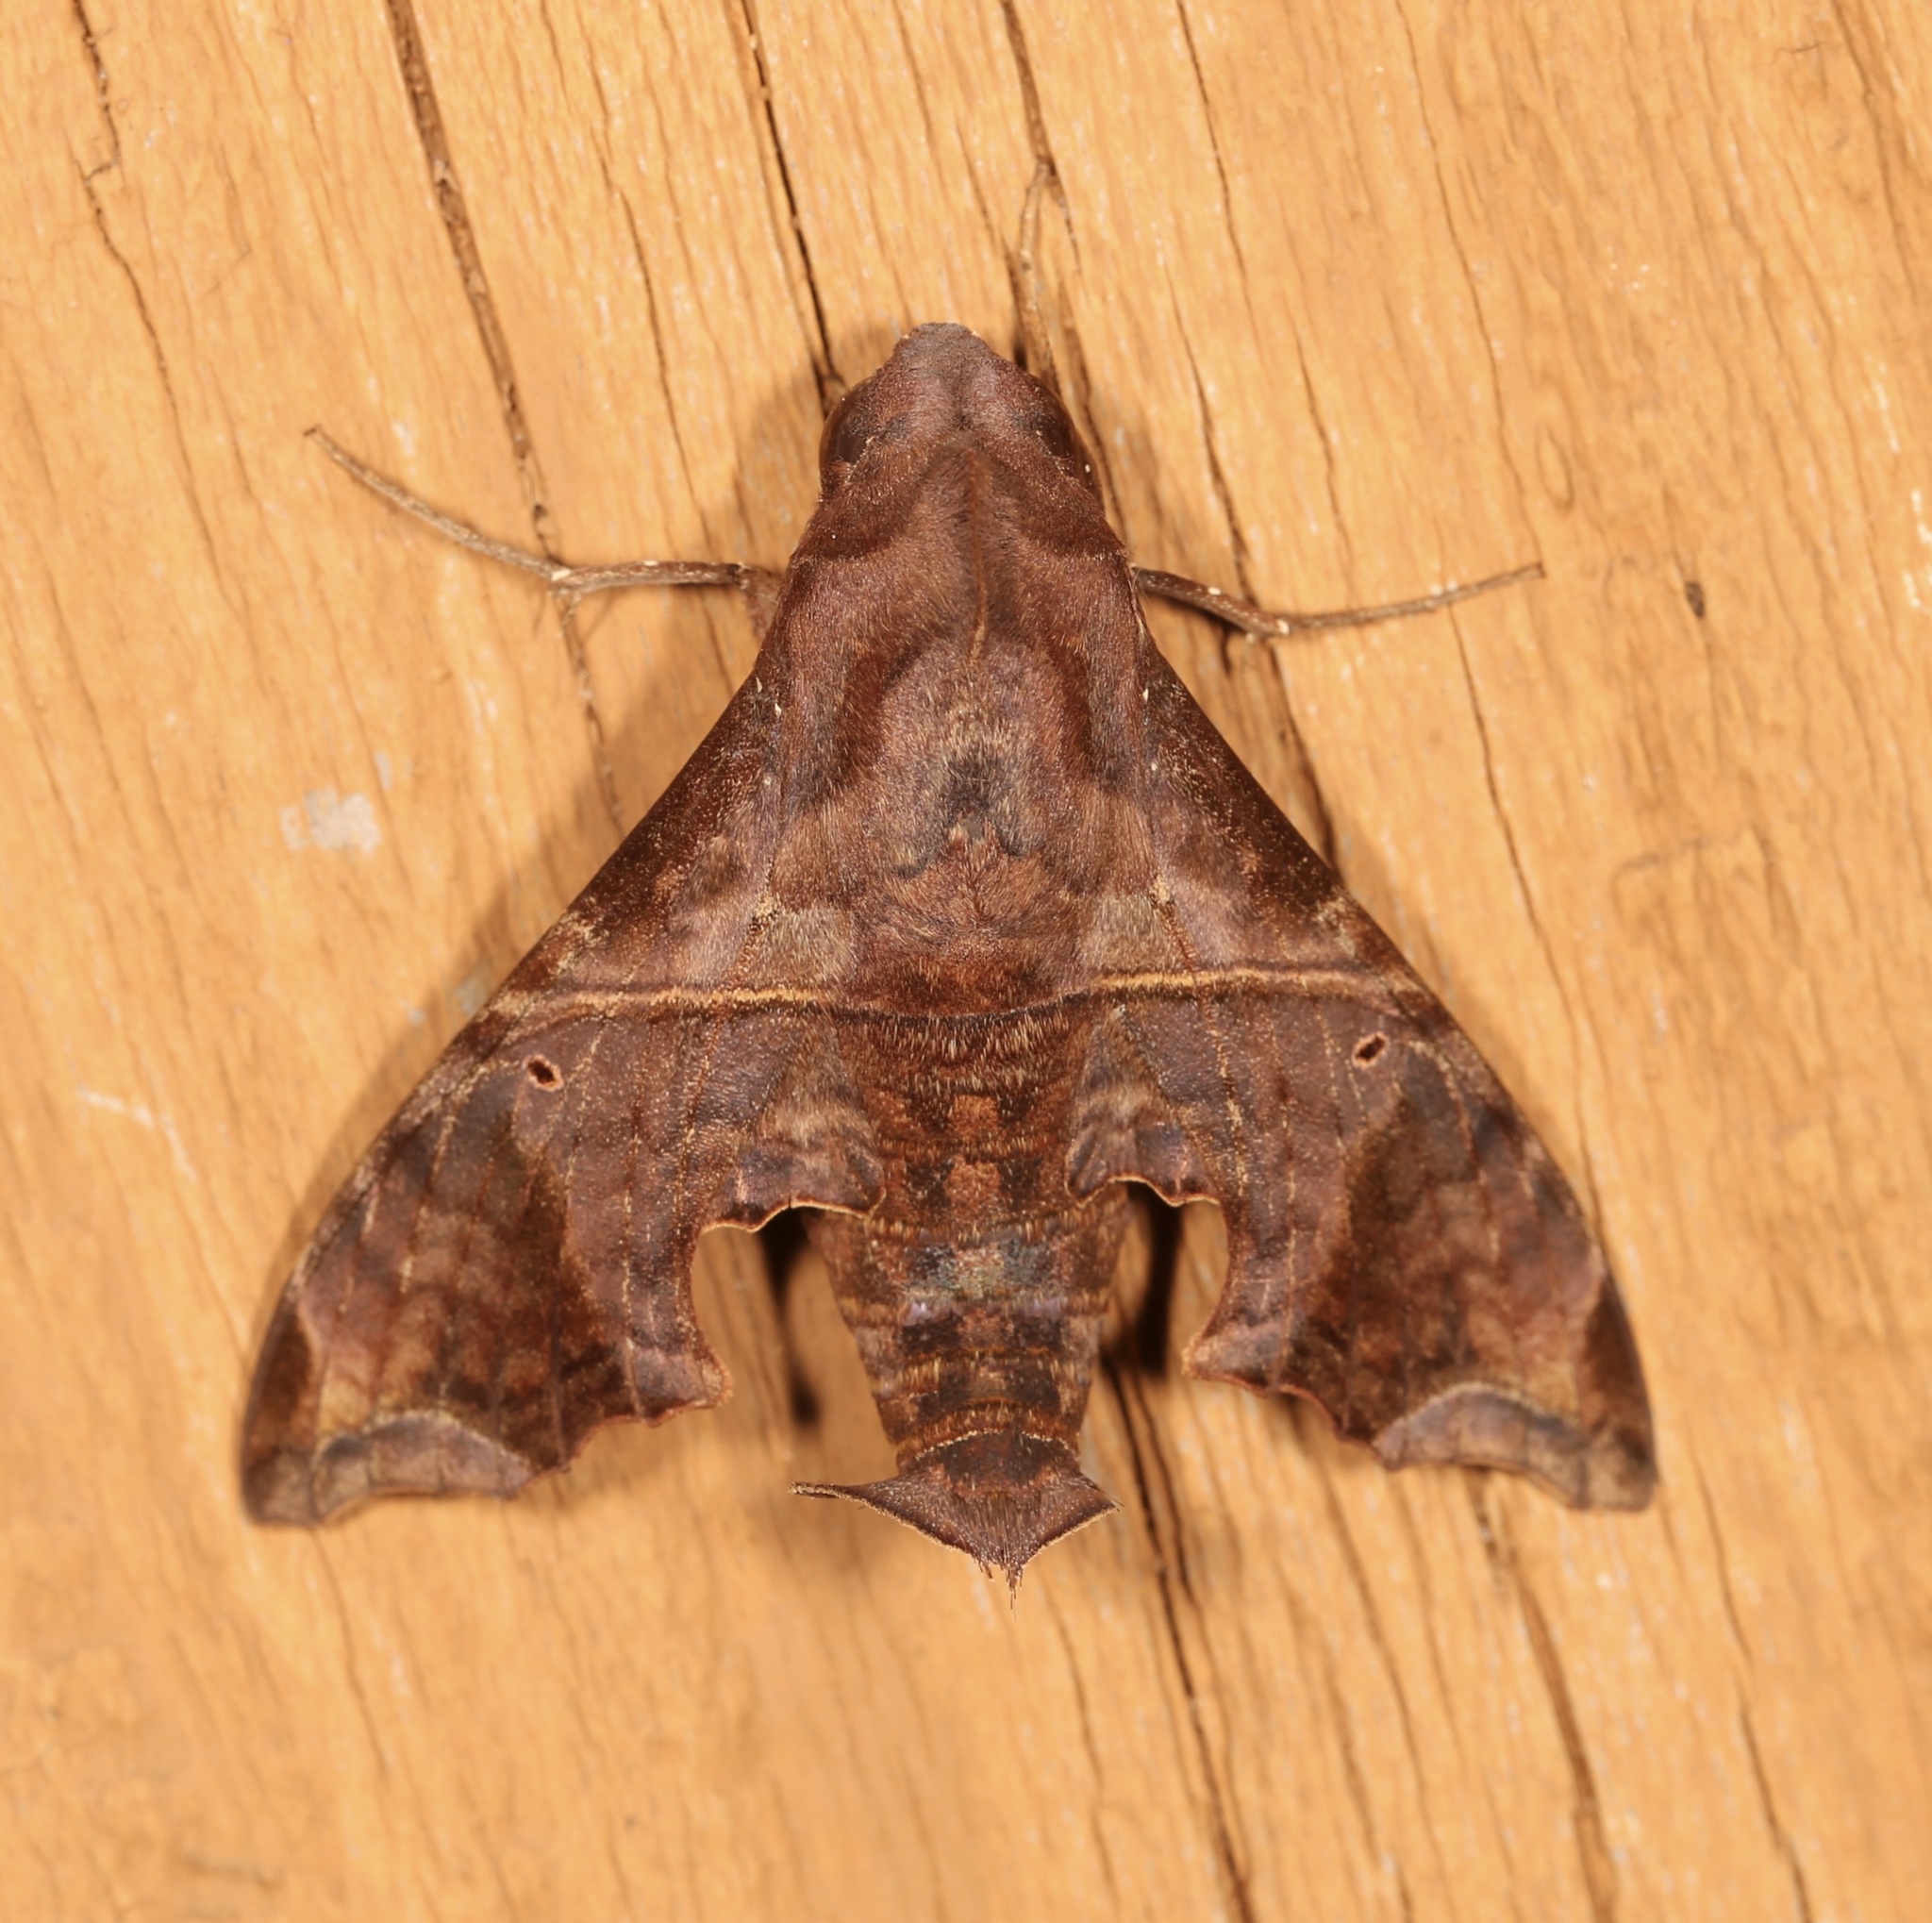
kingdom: Animalia
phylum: Arthropoda
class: Insecta
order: Lepidoptera
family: Sphingidae
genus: Enyo
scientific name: Enyo lugubris
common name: Mournful sphinx
